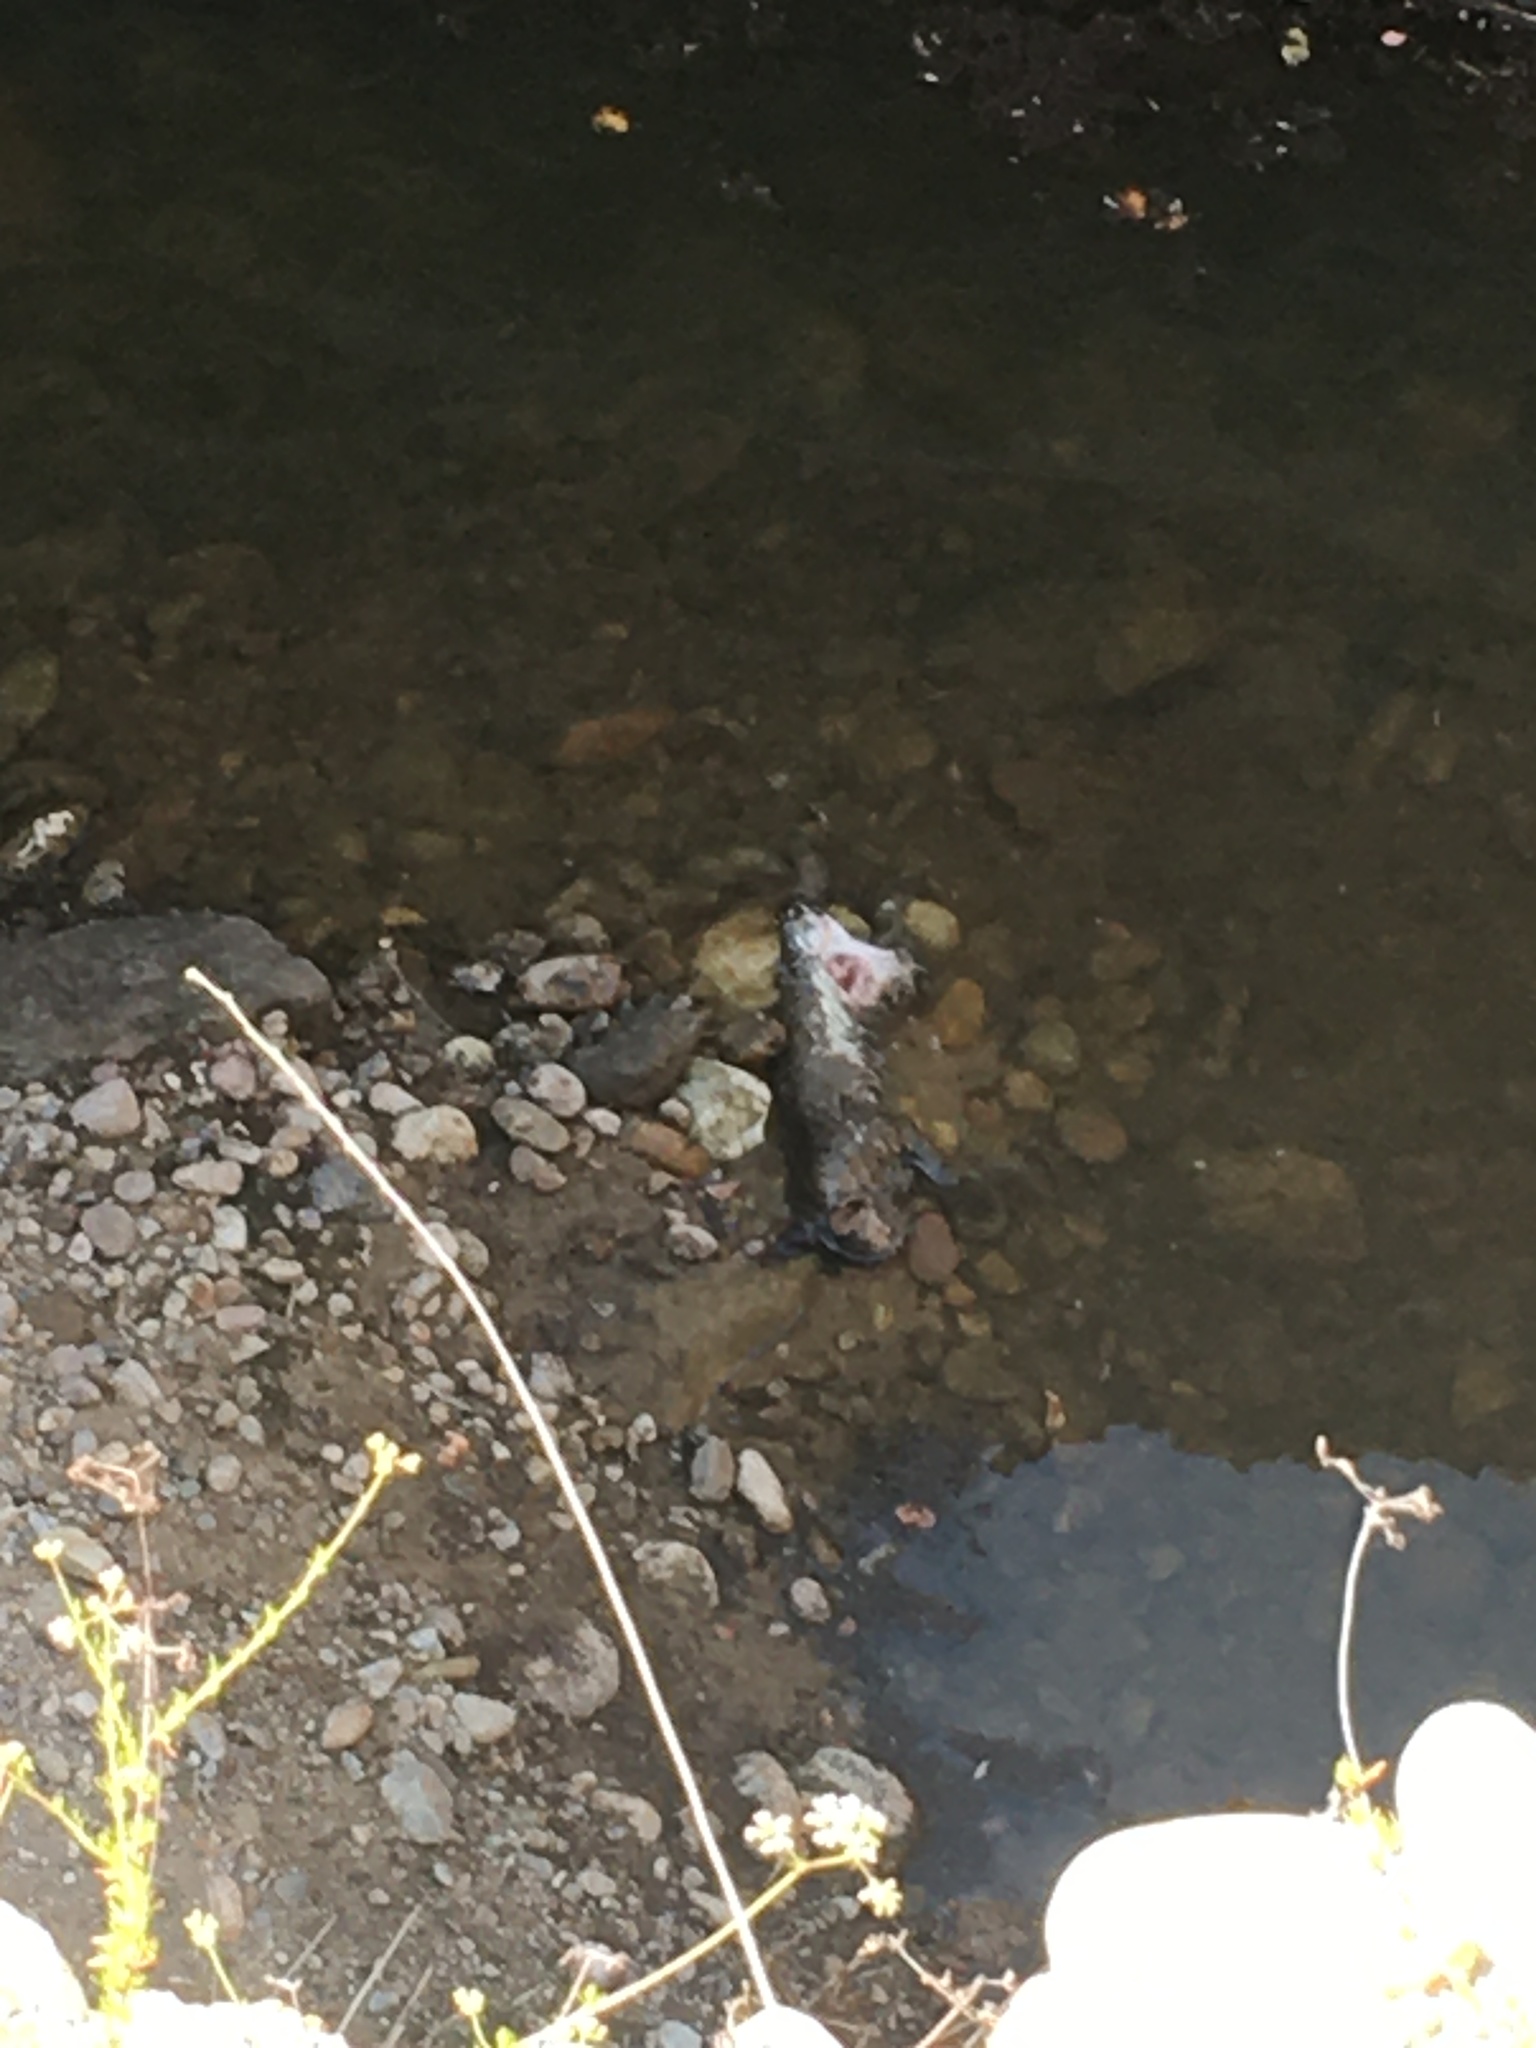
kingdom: Animalia
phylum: Chordata
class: Mammalia
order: Carnivora
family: Felidae
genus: Lynx
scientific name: Lynx rufus
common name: Bobcat
